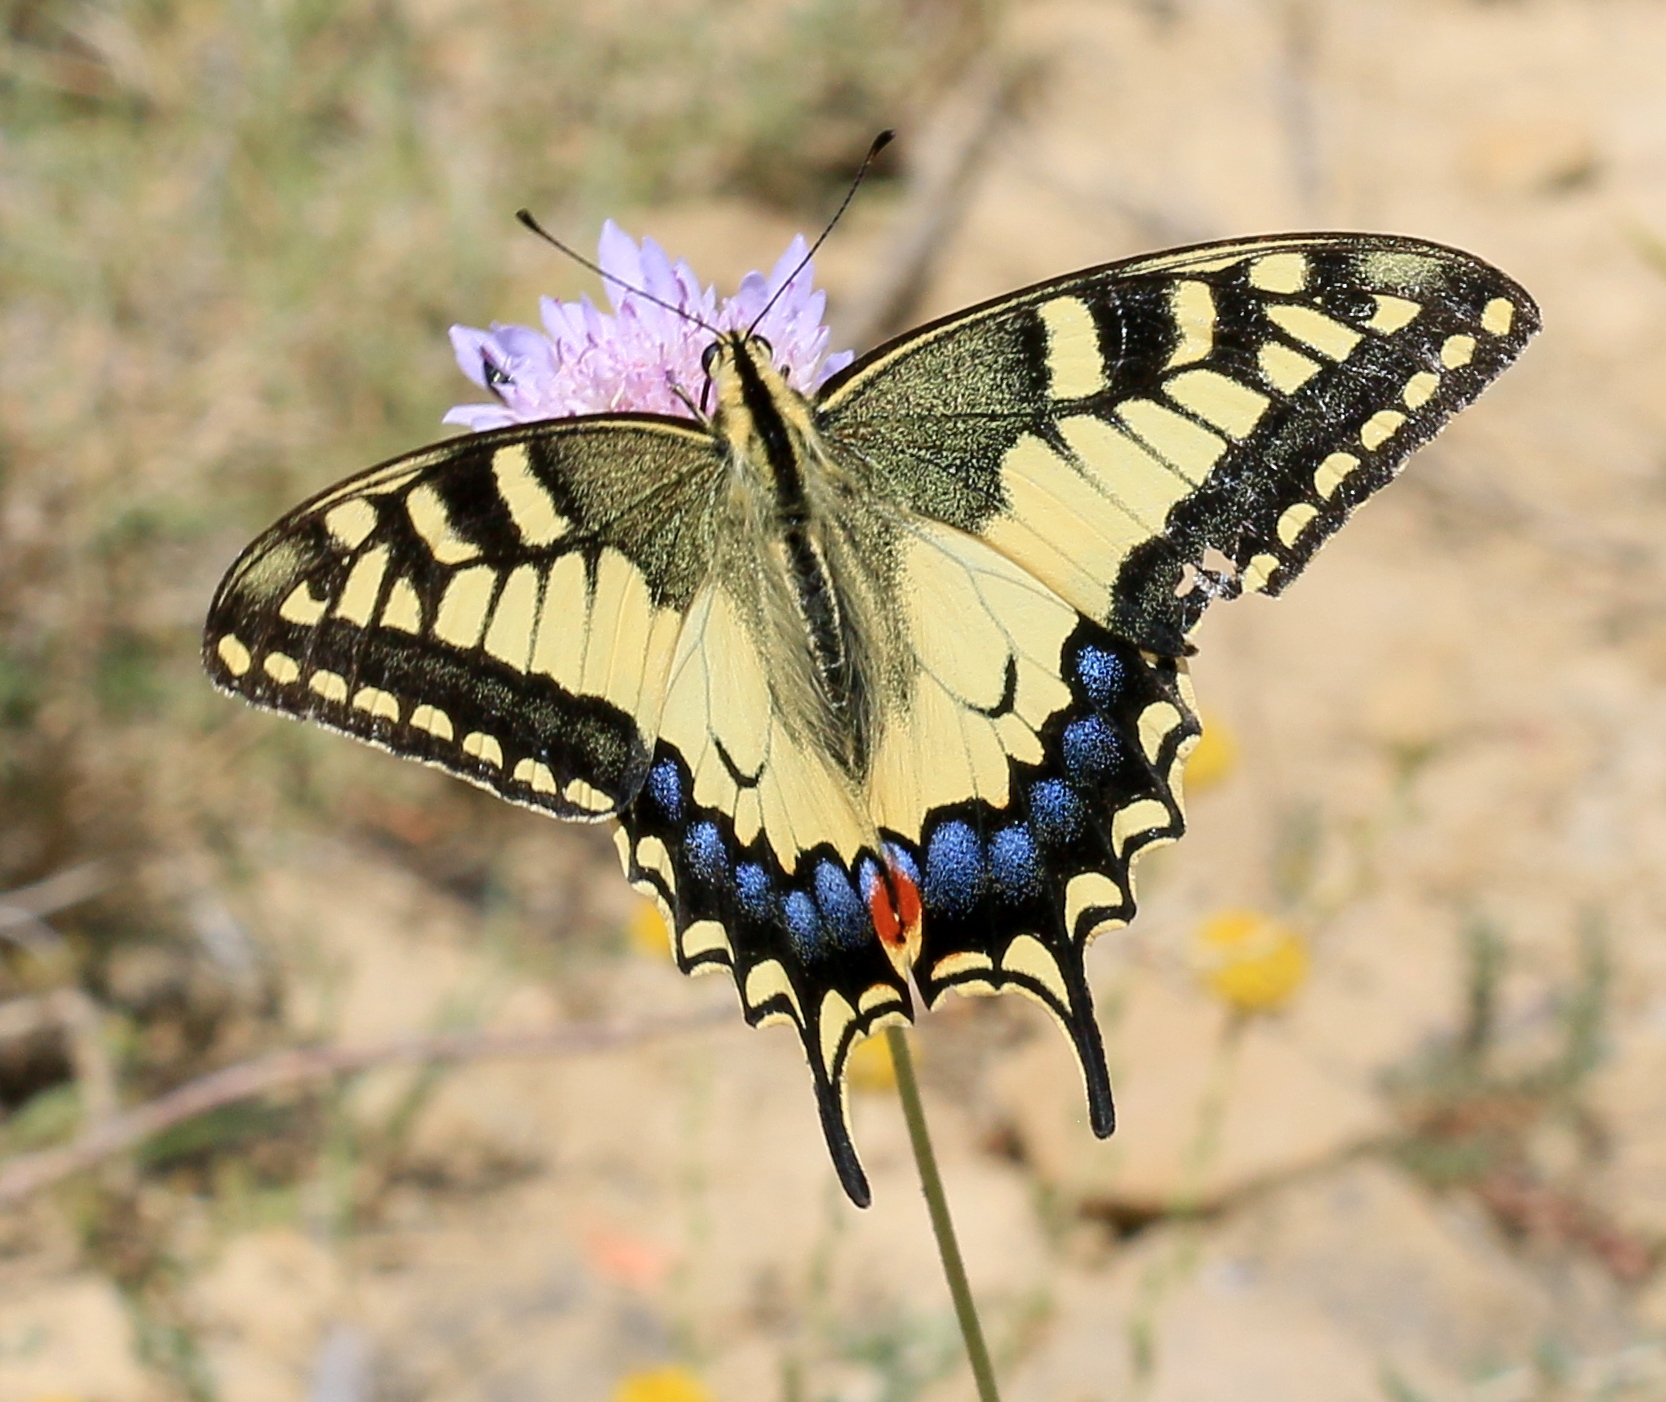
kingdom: Animalia
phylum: Arthropoda
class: Insecta
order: Lepidoptera
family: Papilionidae
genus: Papilio
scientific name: Papilio machaon
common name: Swallowtail
